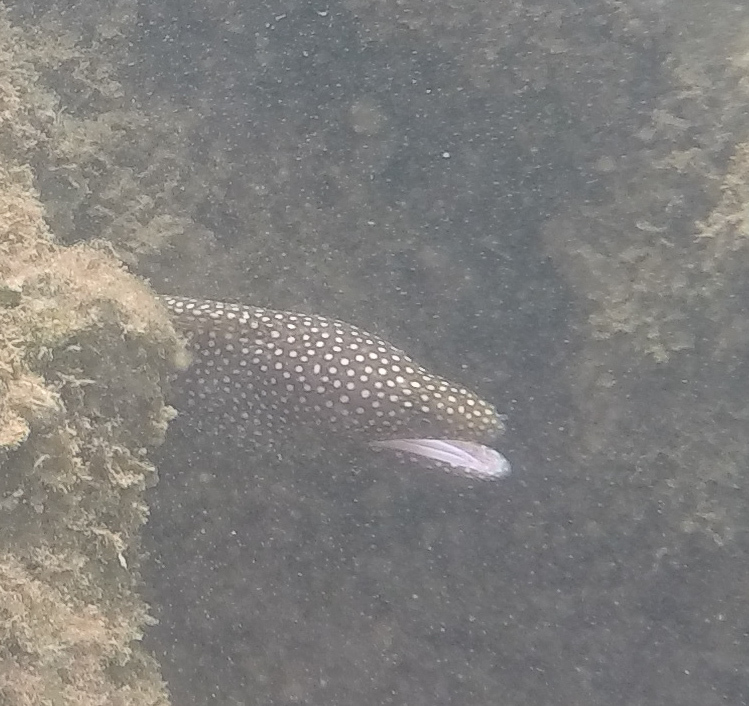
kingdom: Animalia
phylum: Chordata
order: Anguilliformes
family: Muraenidae
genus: Gymnothorax
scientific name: Gymnothorax meleagris
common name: Guineafowl moray
